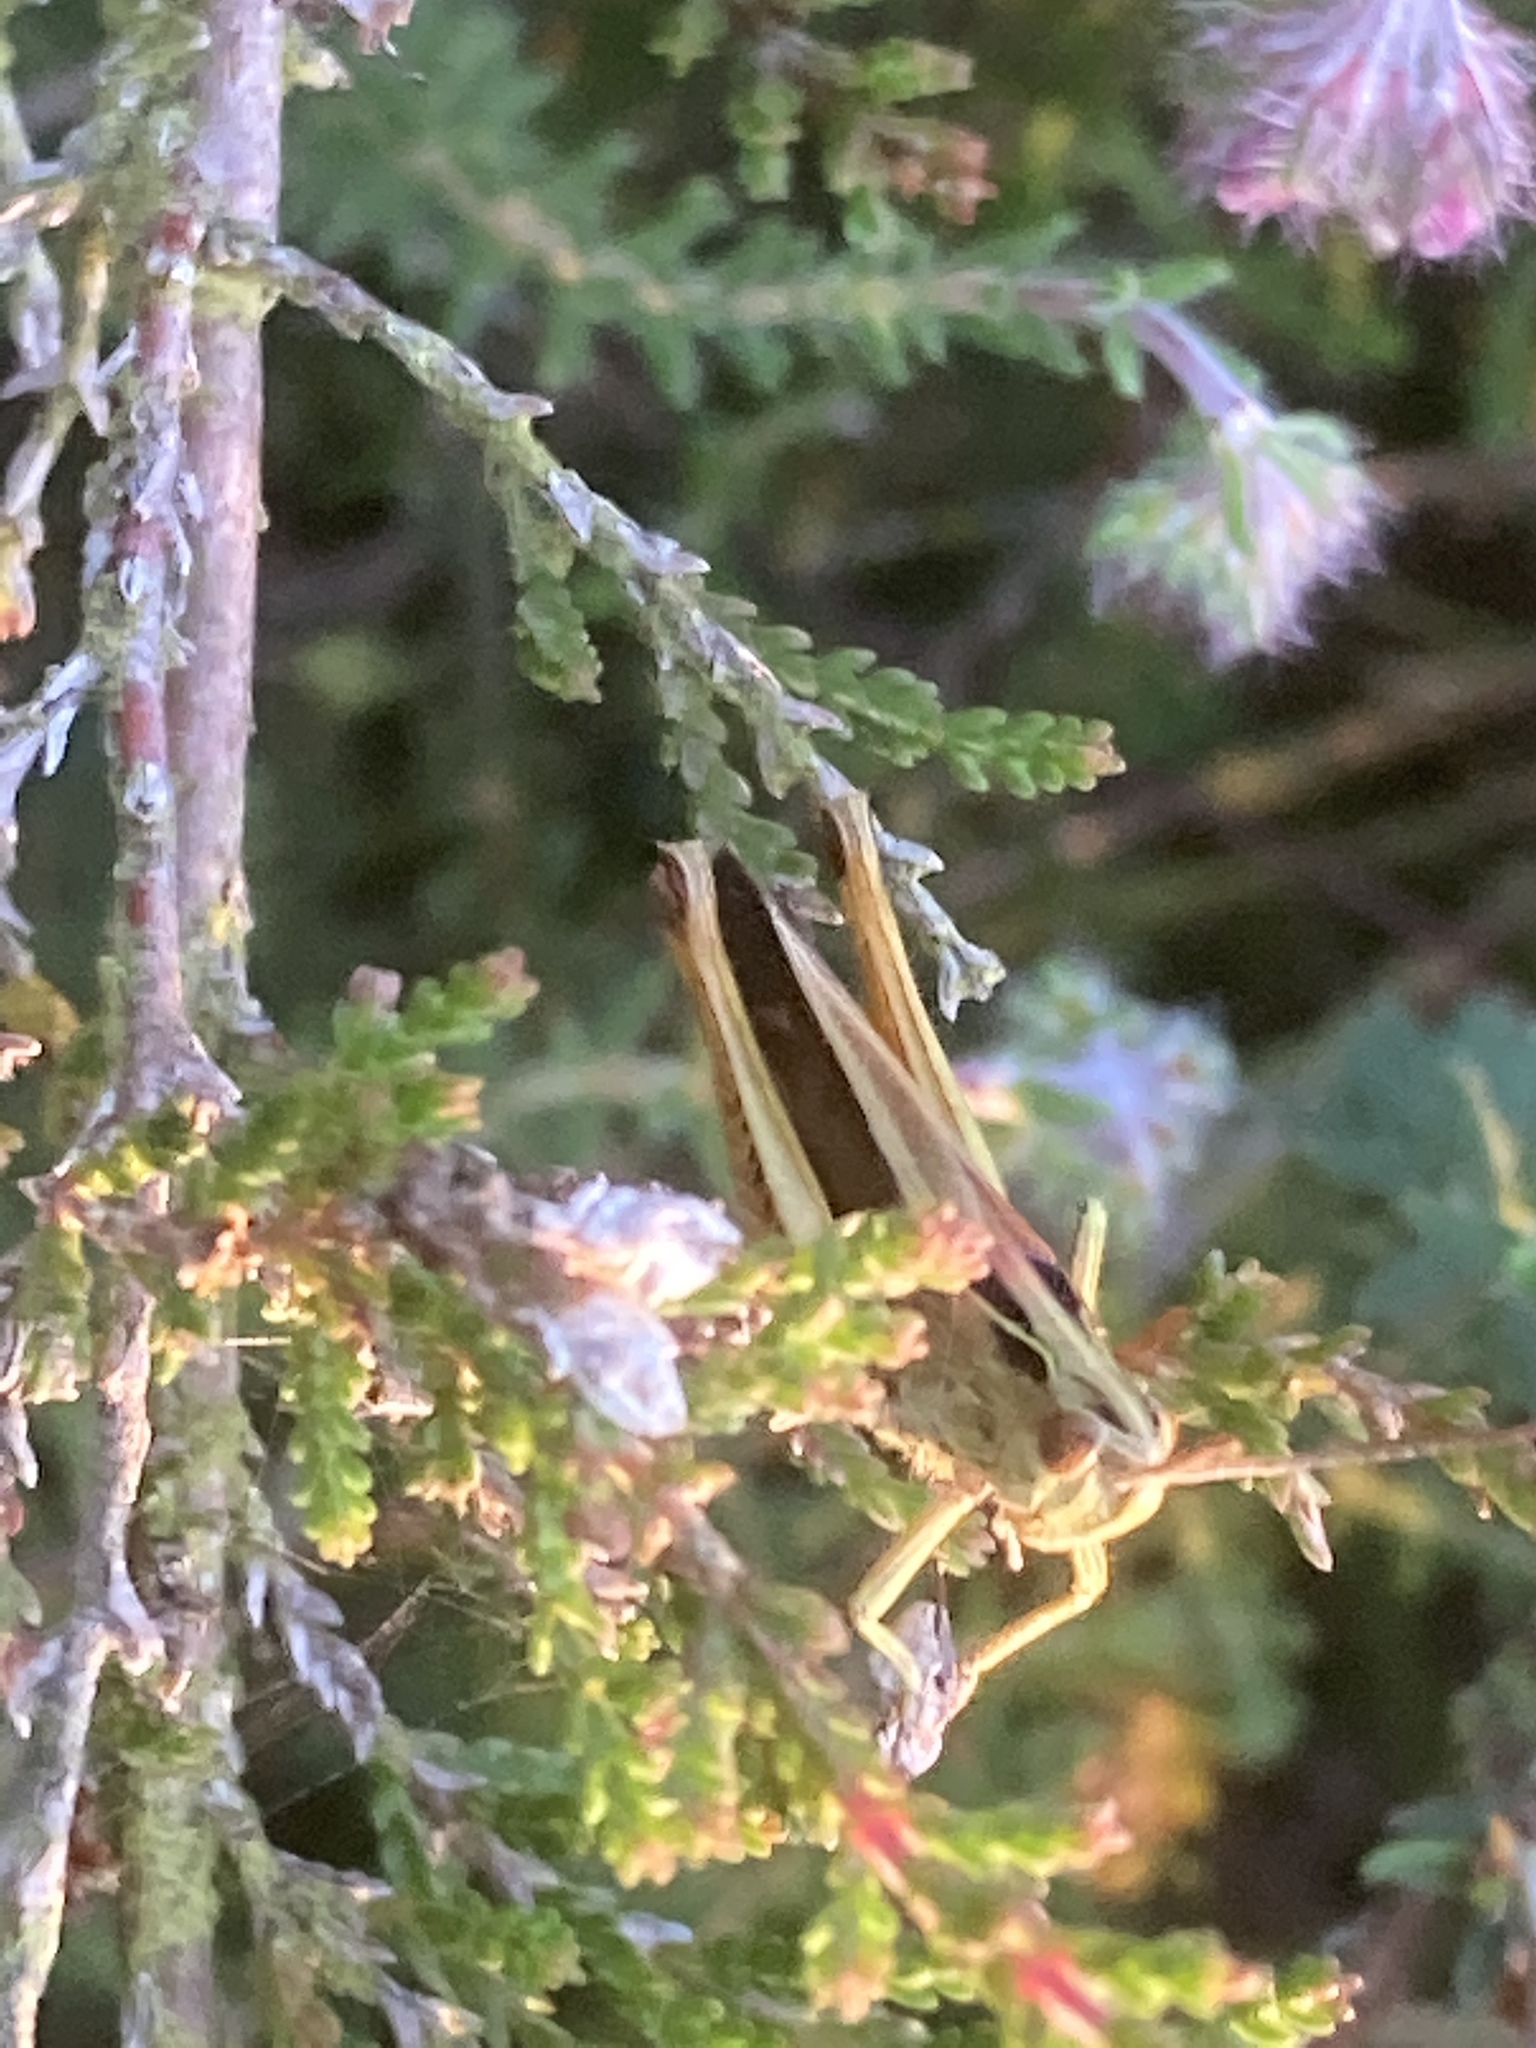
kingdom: Animalia
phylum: Arthropoda
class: Insecta
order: Orthoptera
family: Acrididae
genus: Omocestus
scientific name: Omocestus viridulus
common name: Common green grasshopper
